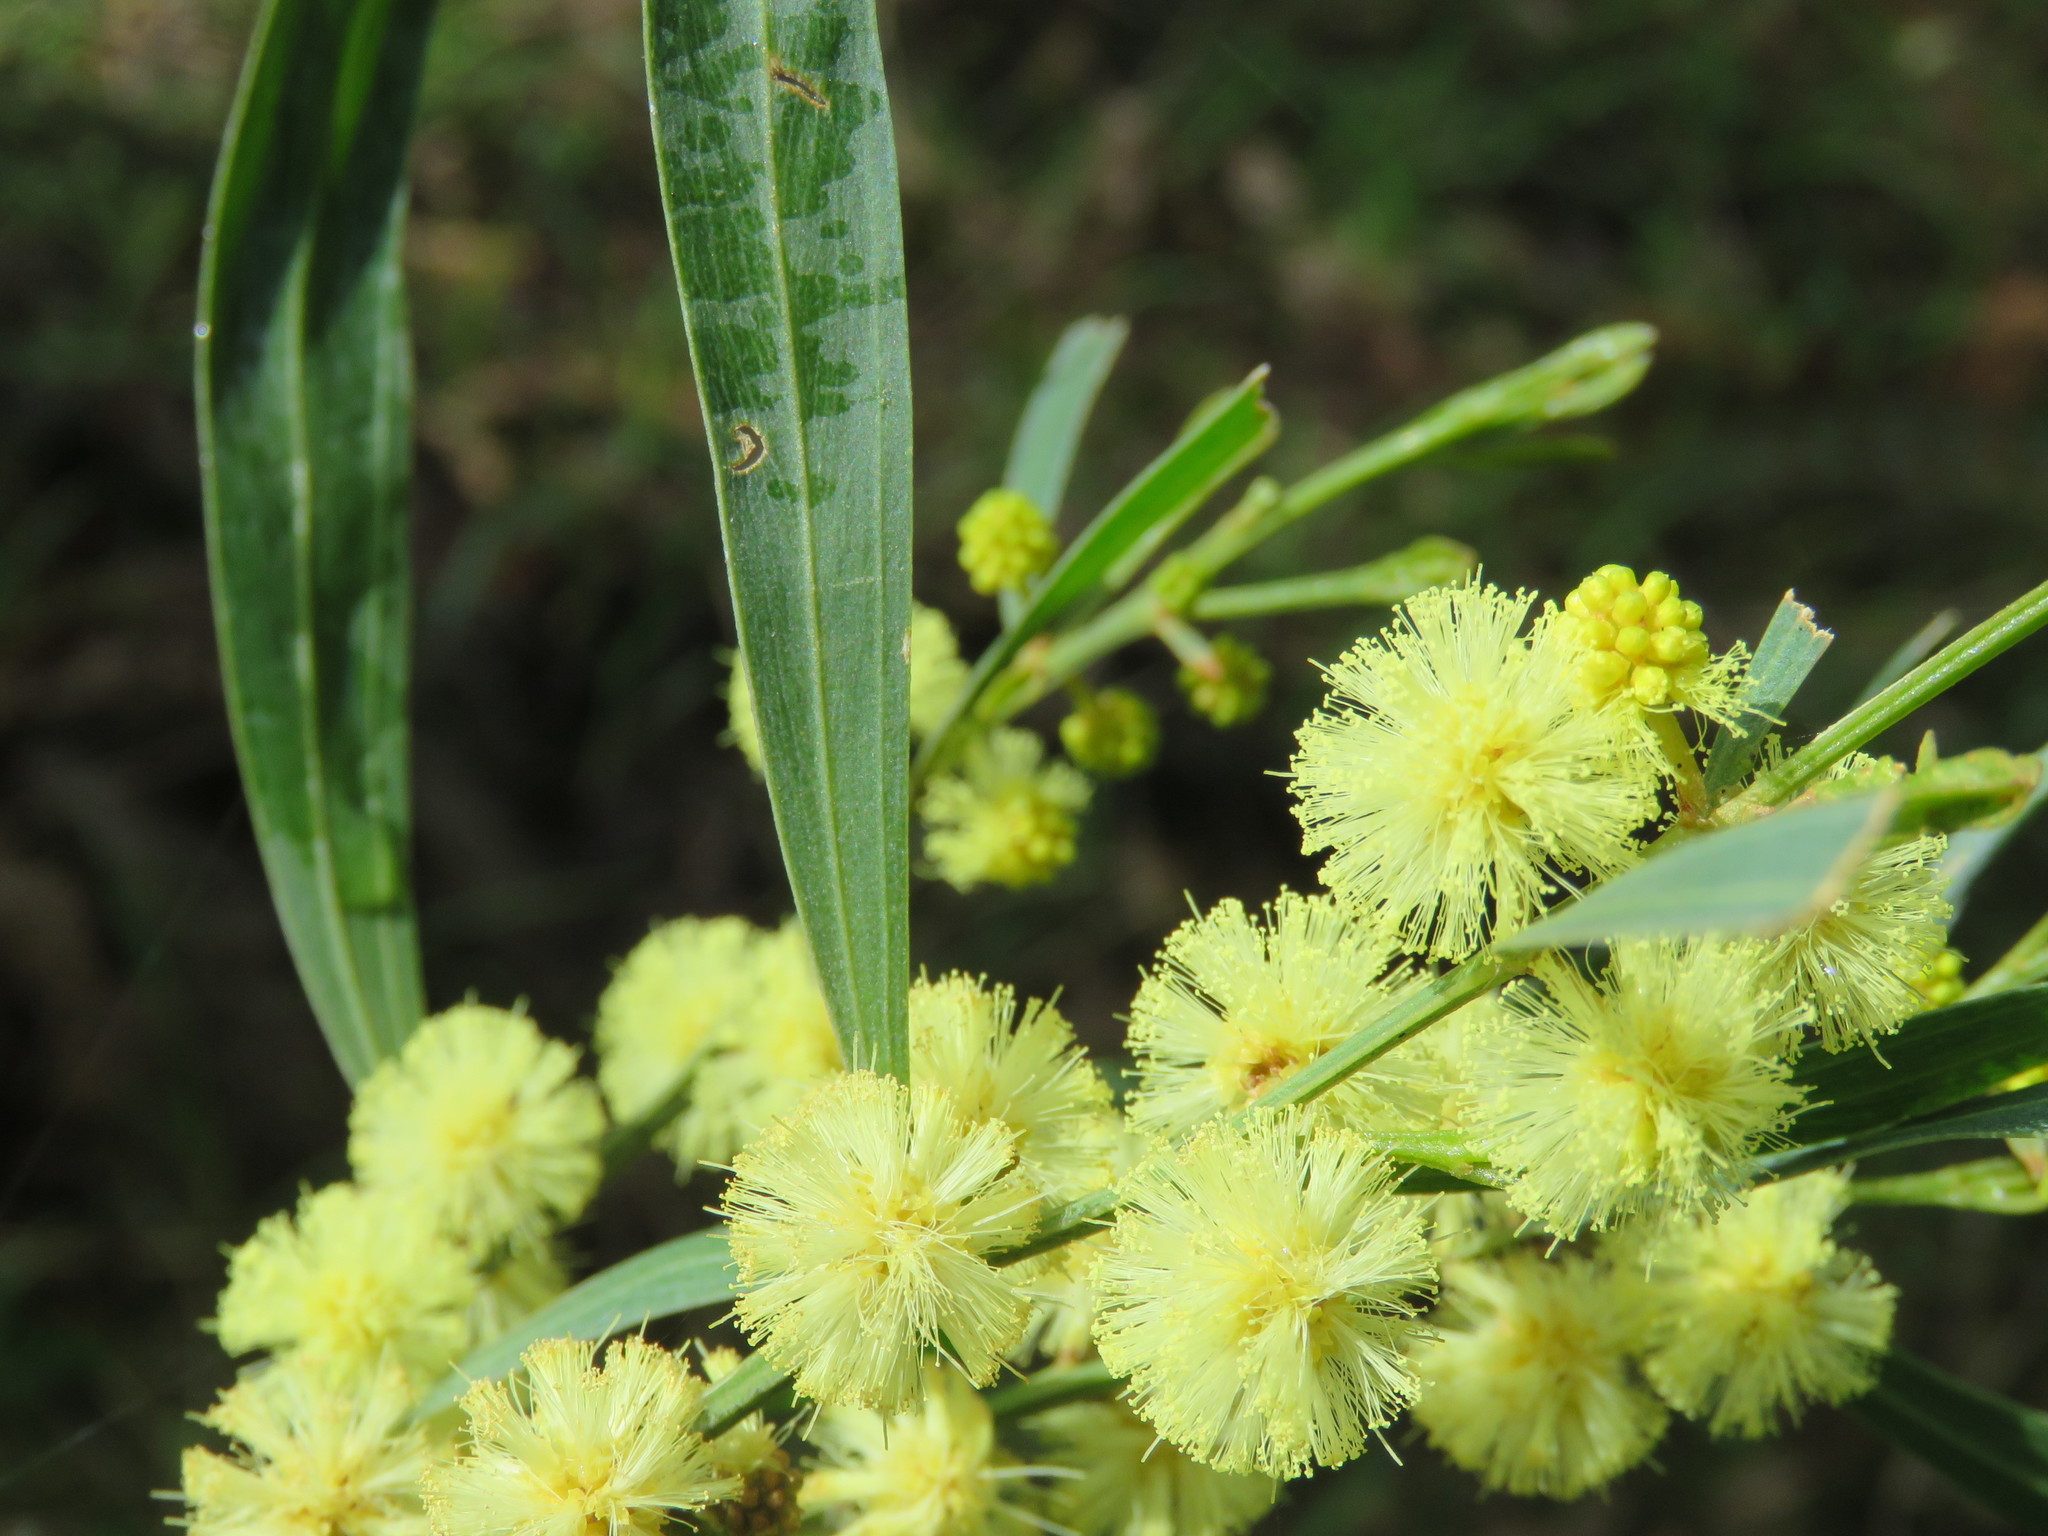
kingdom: Plantae
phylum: Tracheophyta
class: Magnoliopsida
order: Fabales
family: Fabaceae
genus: Acacia
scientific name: Acacia stricta
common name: Hop wattle
